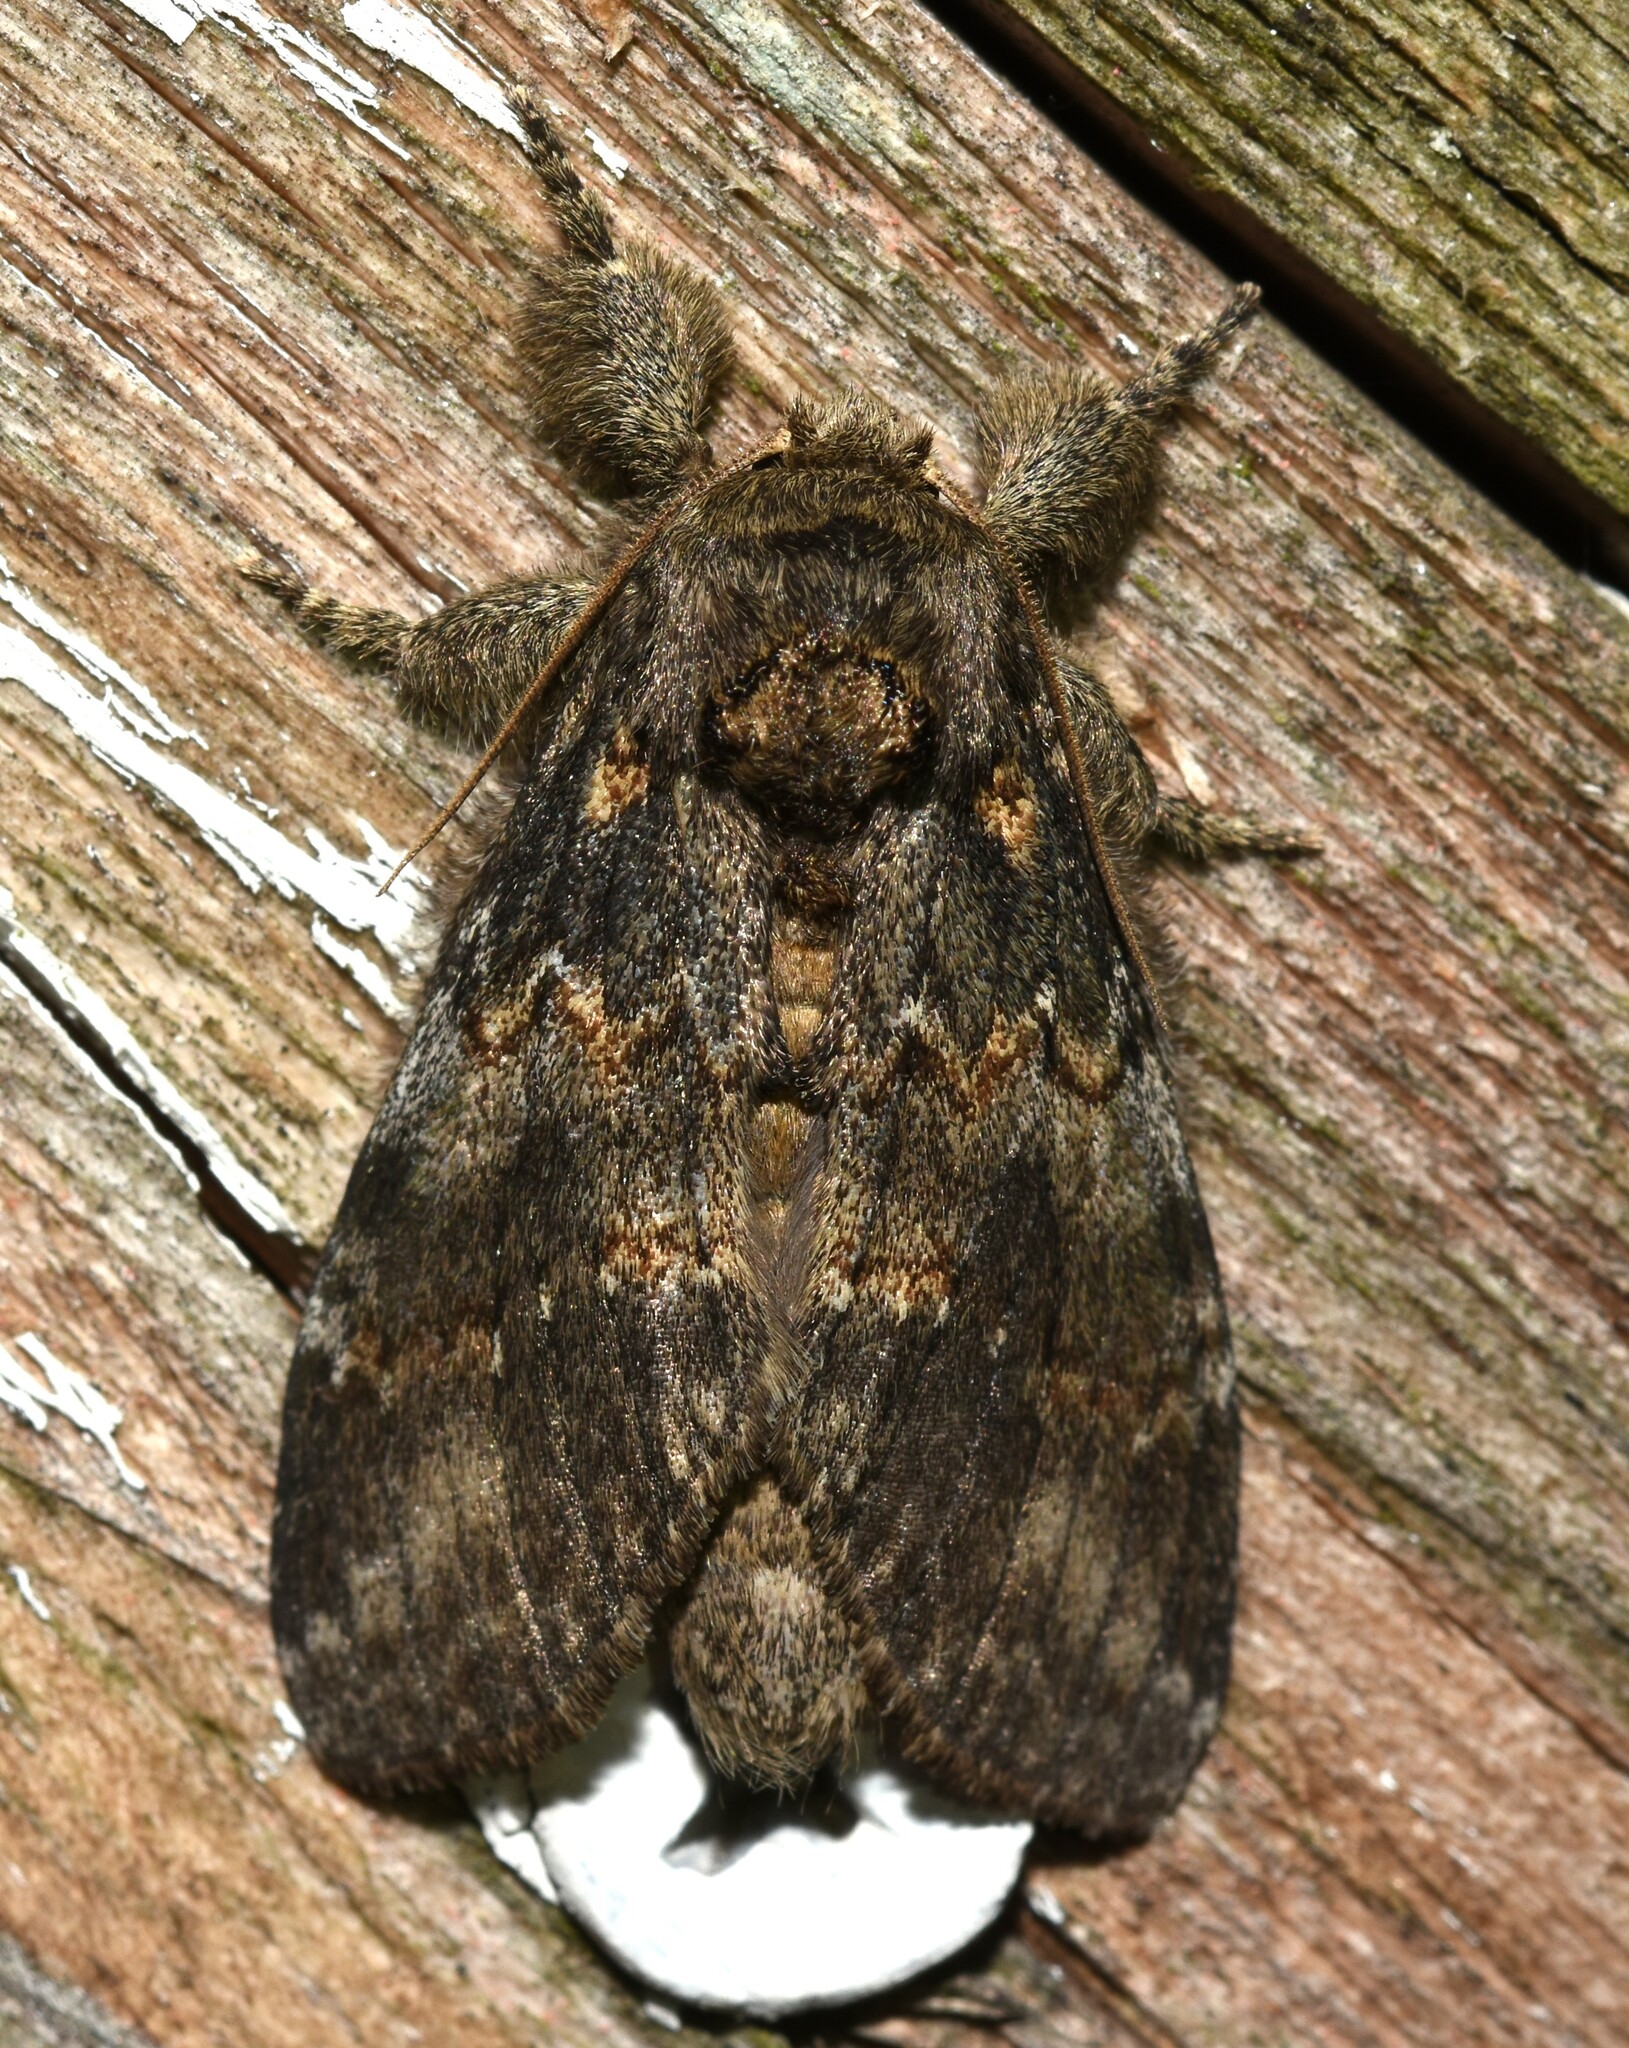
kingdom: Animalia
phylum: Arthropoda
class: Insecta
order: Lepidoptera
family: Notodontidae
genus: Peridea
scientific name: Peridea angulosa
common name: Angulose prominent
